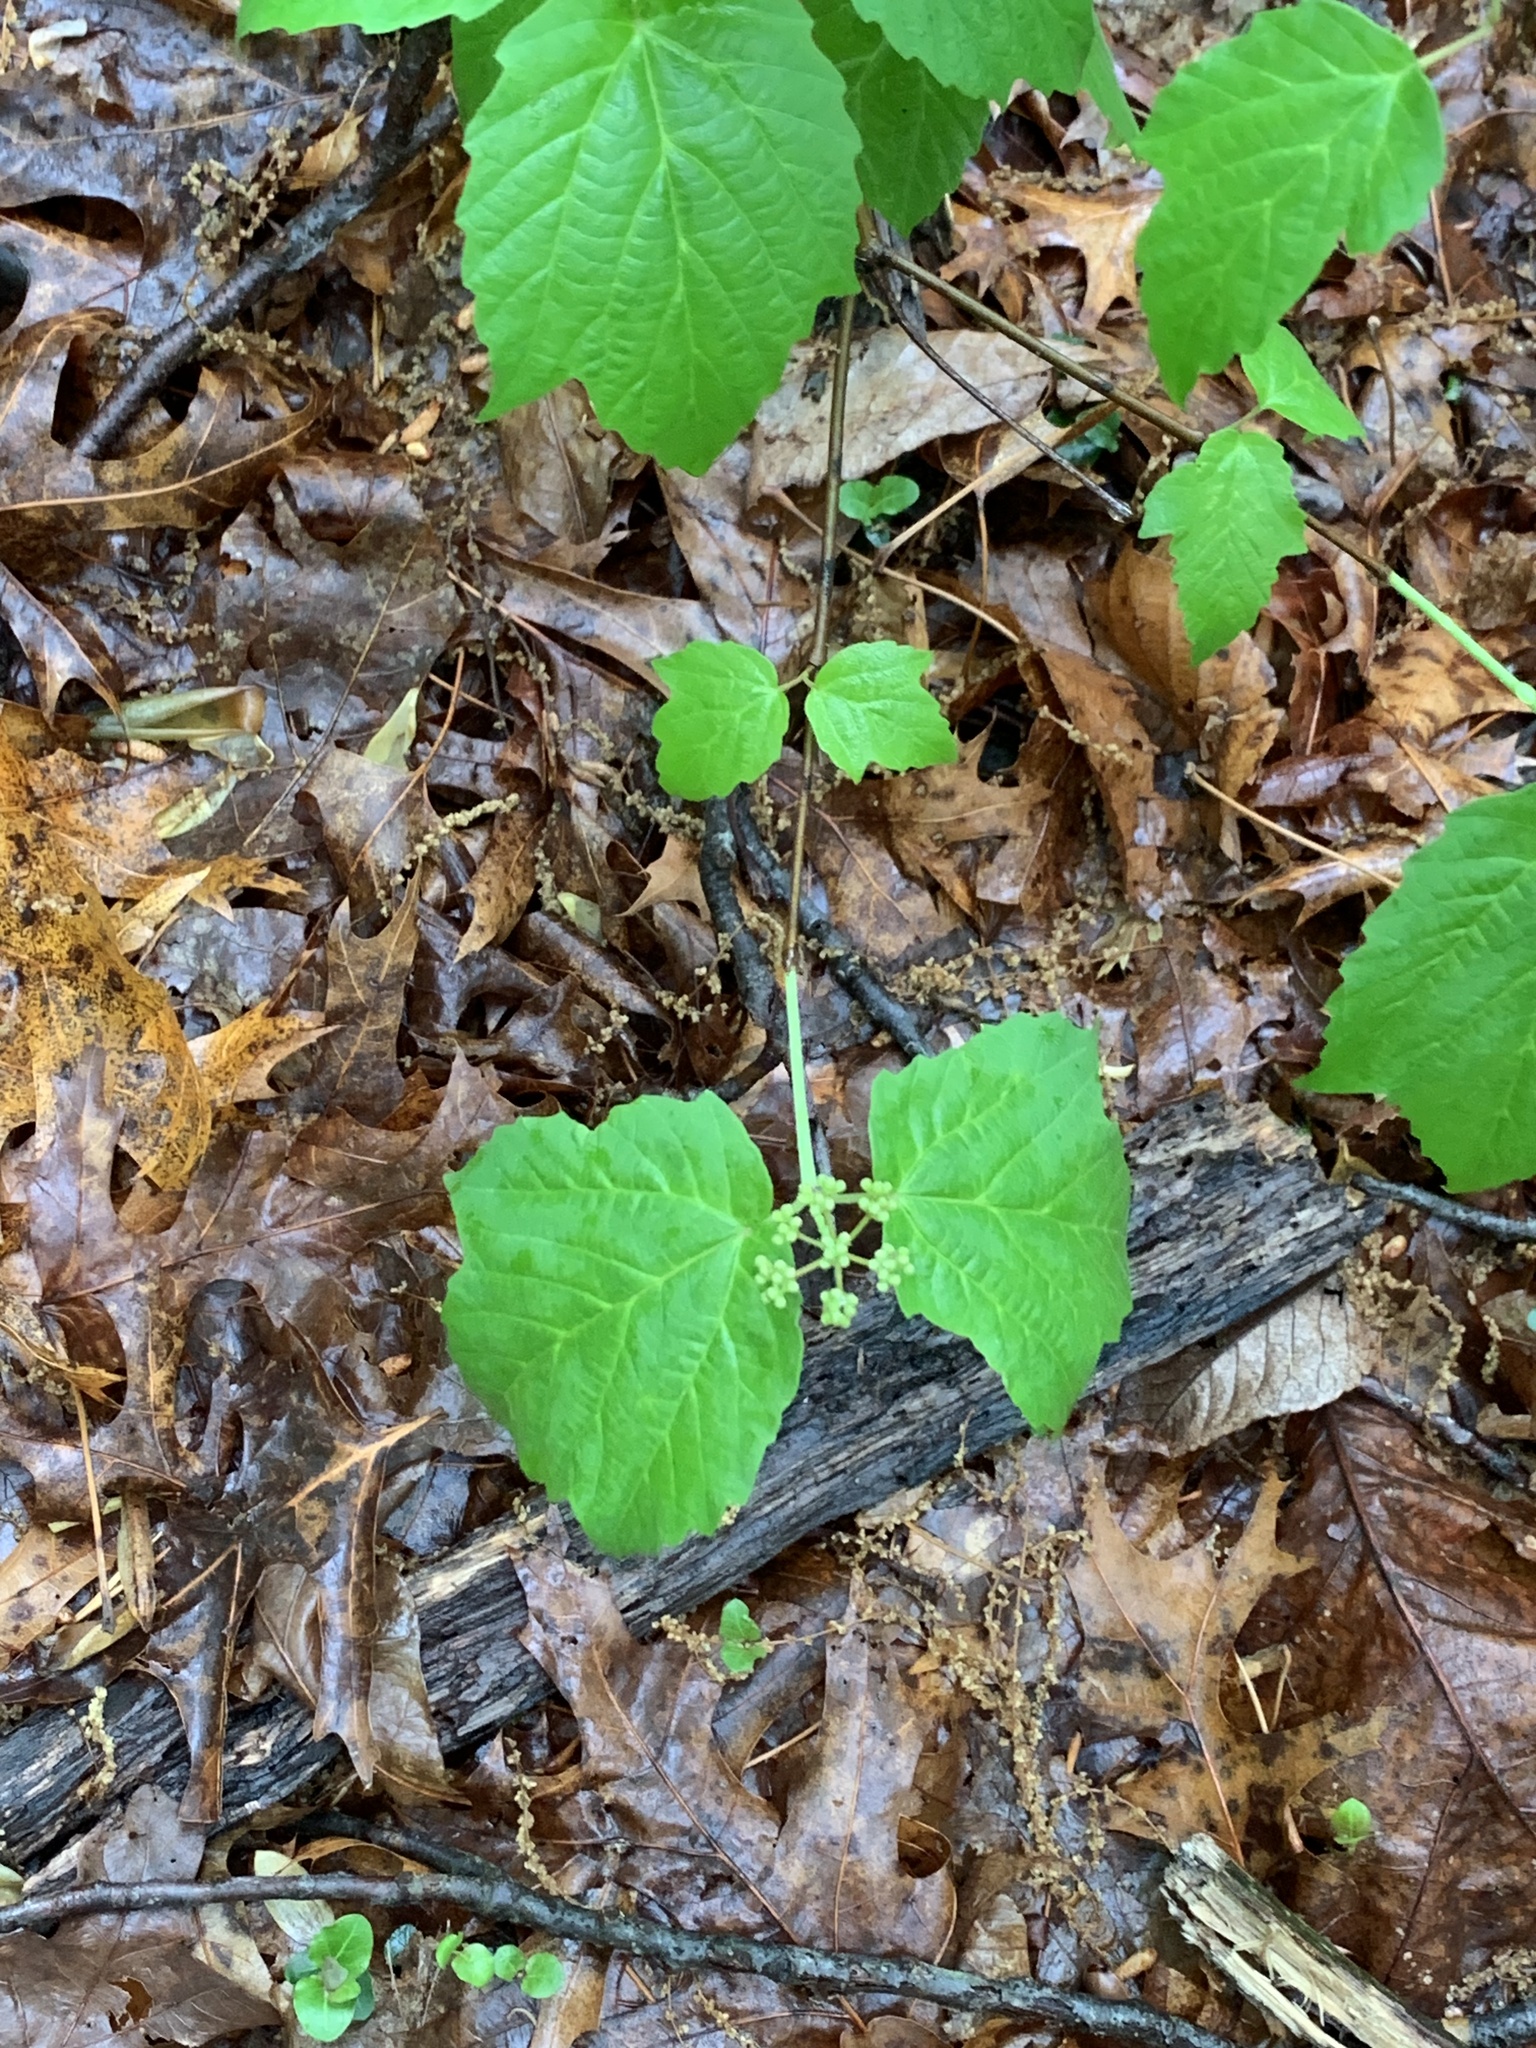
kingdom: Plantae
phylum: Tracheophyta
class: Magnoliopsida
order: Dipsacales
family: Viburnaceae
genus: Viburnum
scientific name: Viburnum acerifolium
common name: Dockmackie
